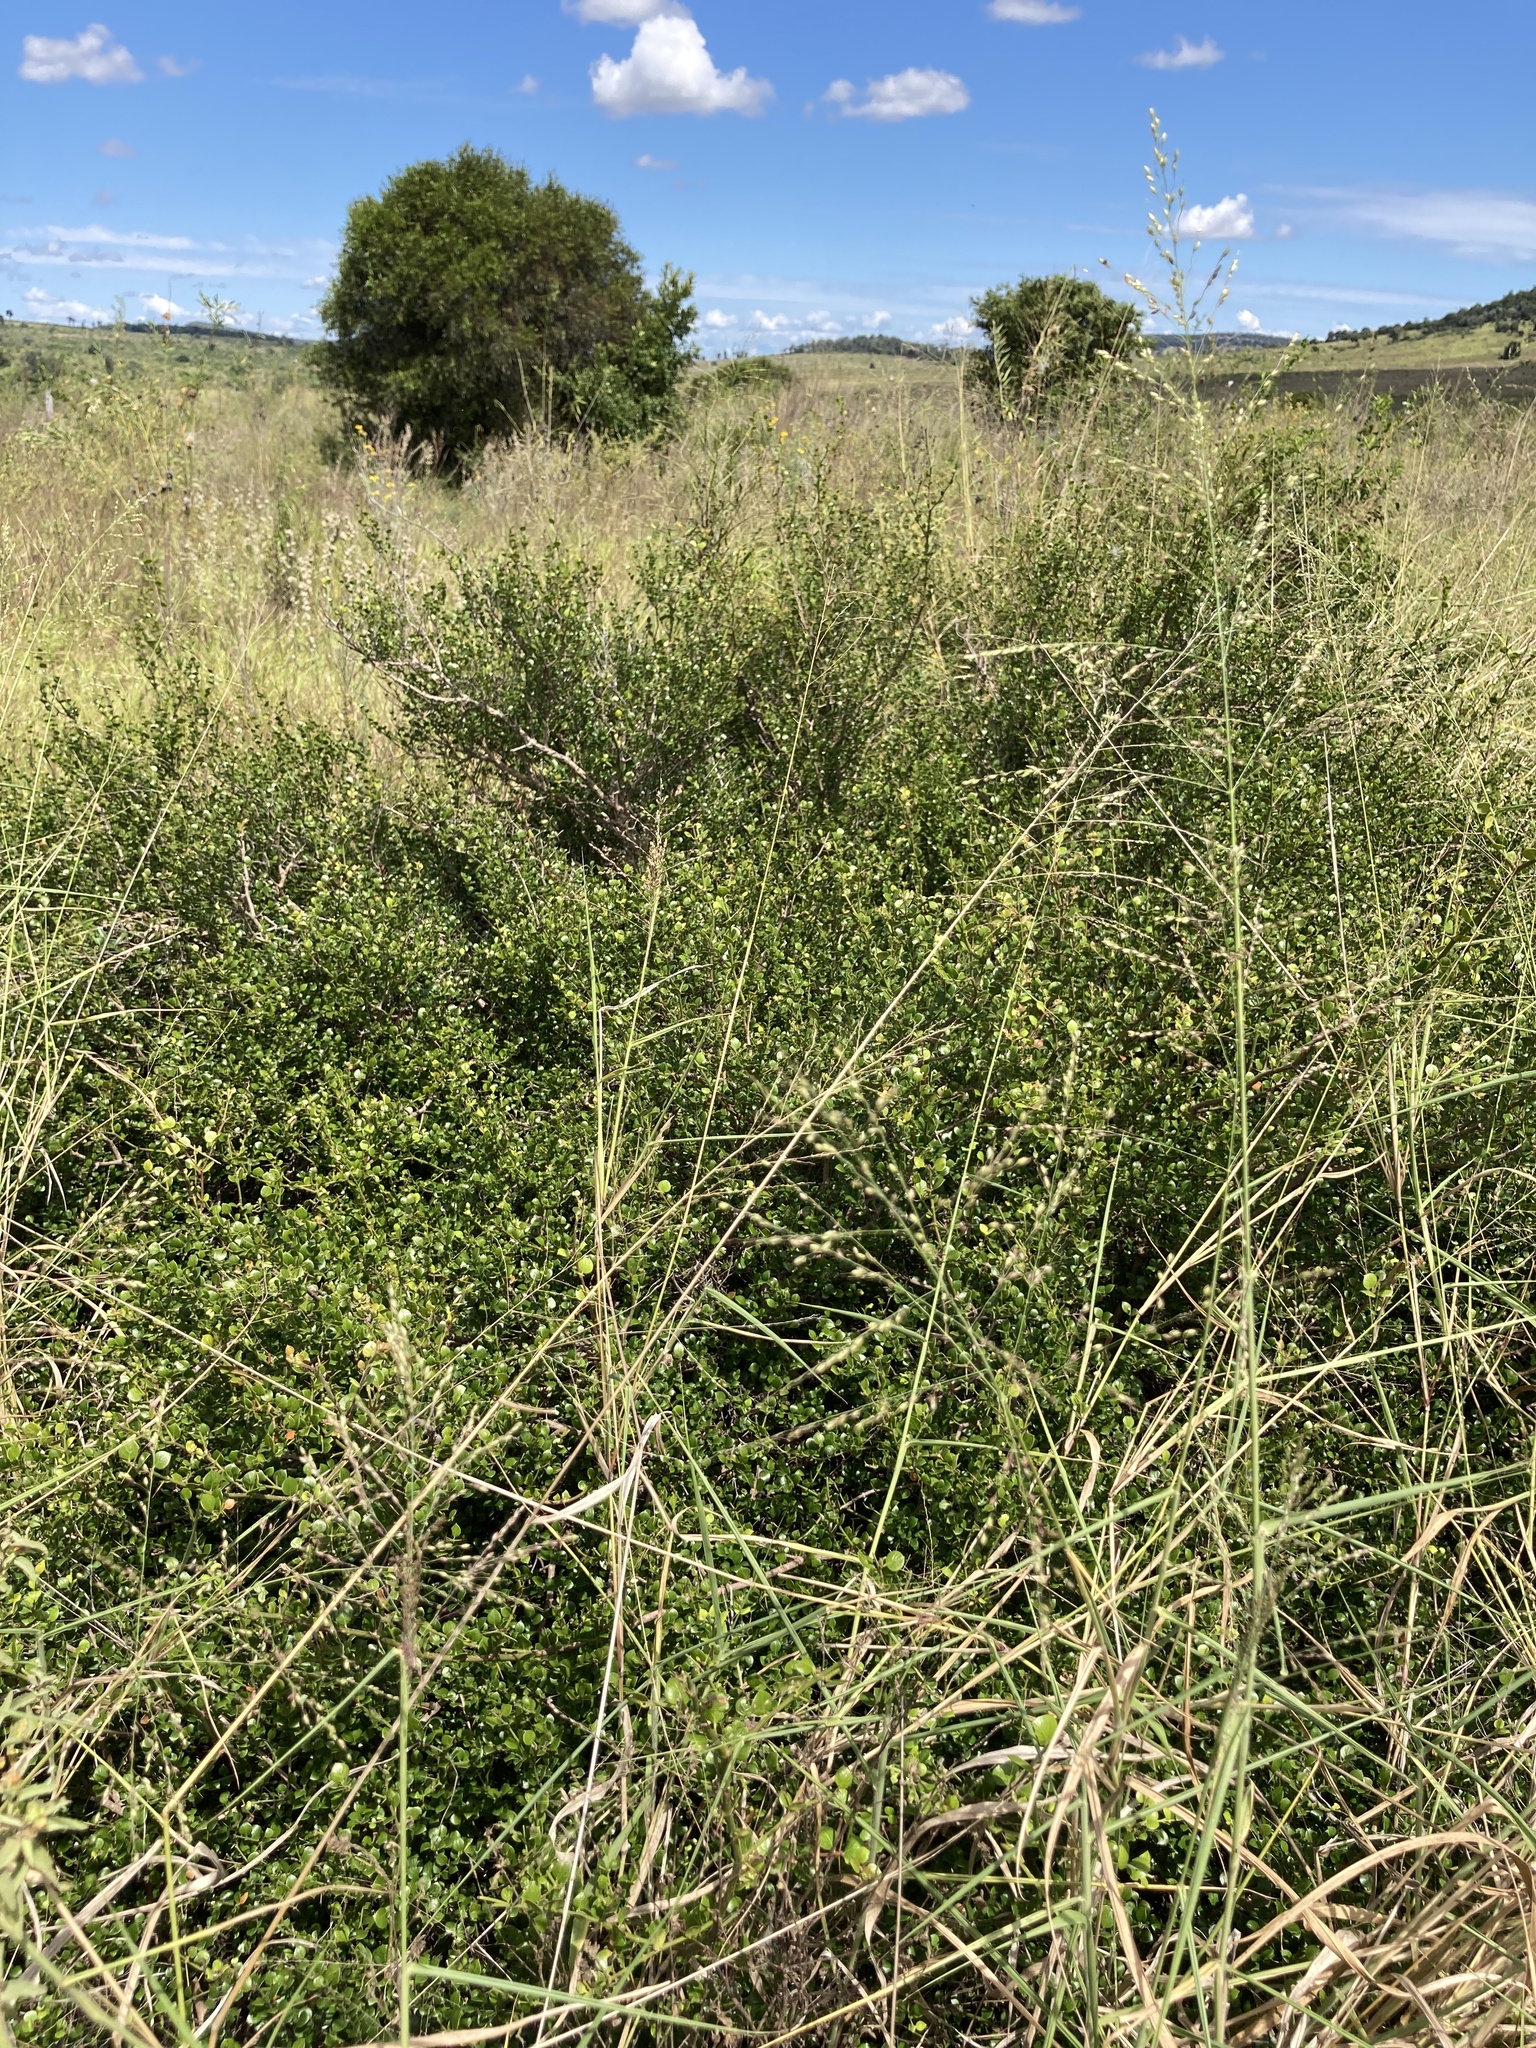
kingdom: Plantae
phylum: Tracheophyta
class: Magnoliopsida
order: Gentianales
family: Apocynaceae
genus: Carissa
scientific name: Carissa ovata
